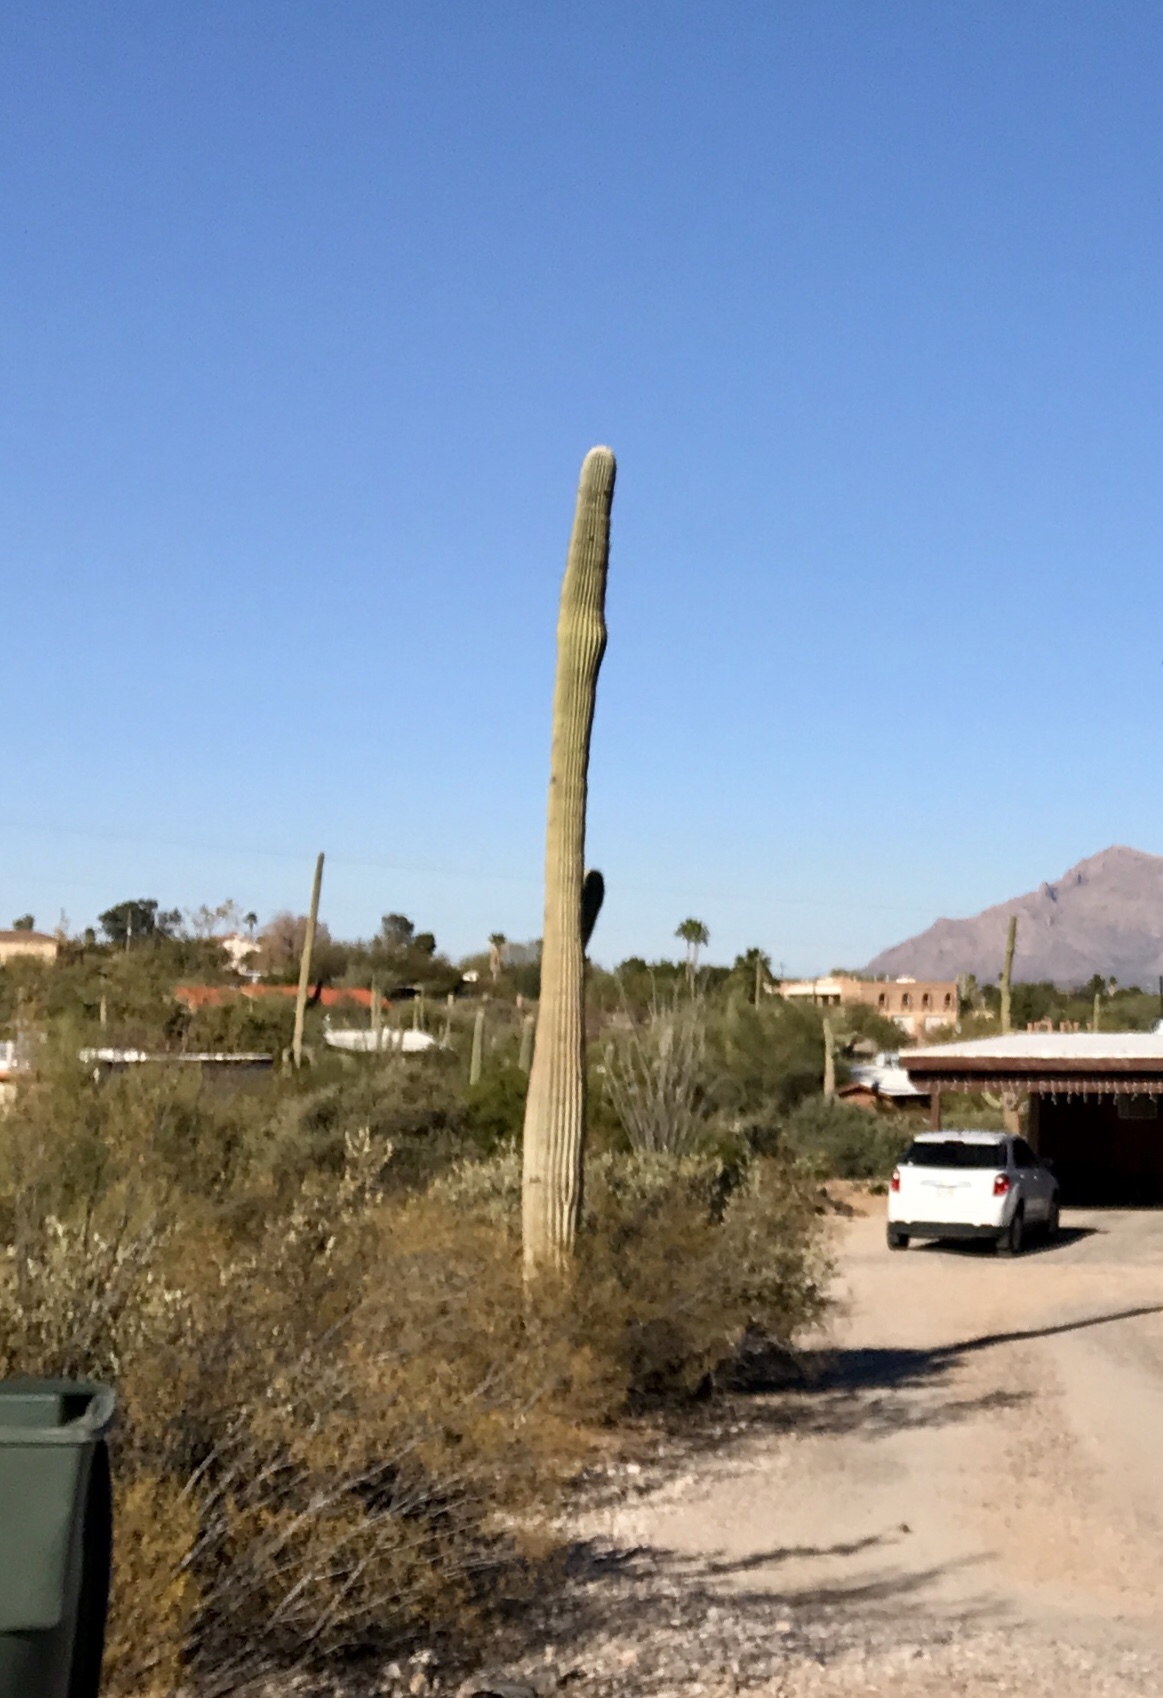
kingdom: Plantae
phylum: Tracheophyta
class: Magnoliopsida
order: Caryophyllales
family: Cactaceae
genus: Carnegiea
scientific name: Carnegiea gigantea
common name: Saguaro
